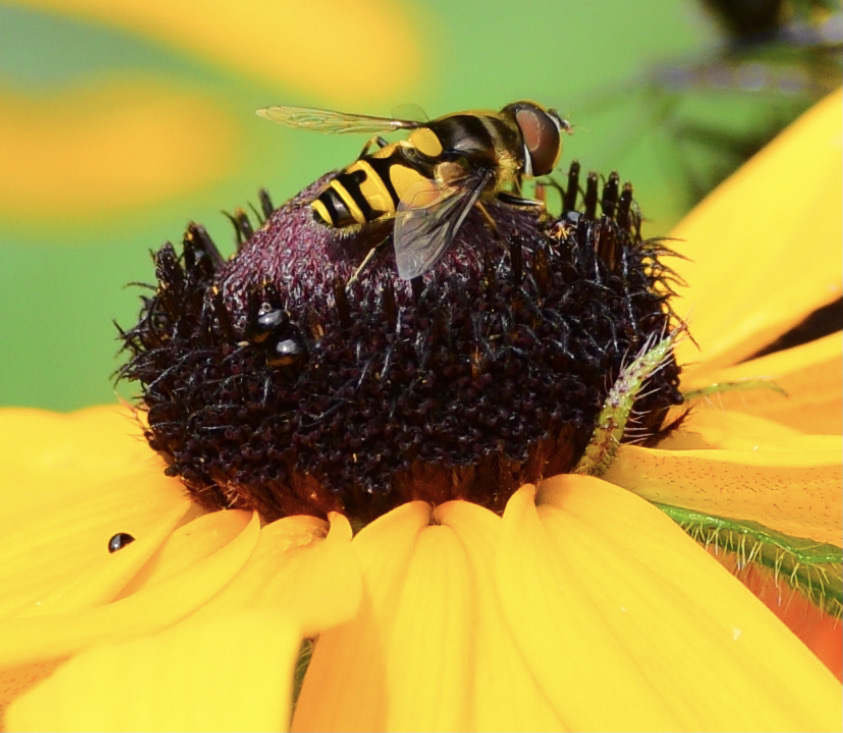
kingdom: Animalia
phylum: Arthropoda
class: Insecta
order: Diptera
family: Syrphidae
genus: Eristalis
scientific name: Eristalis transversa
